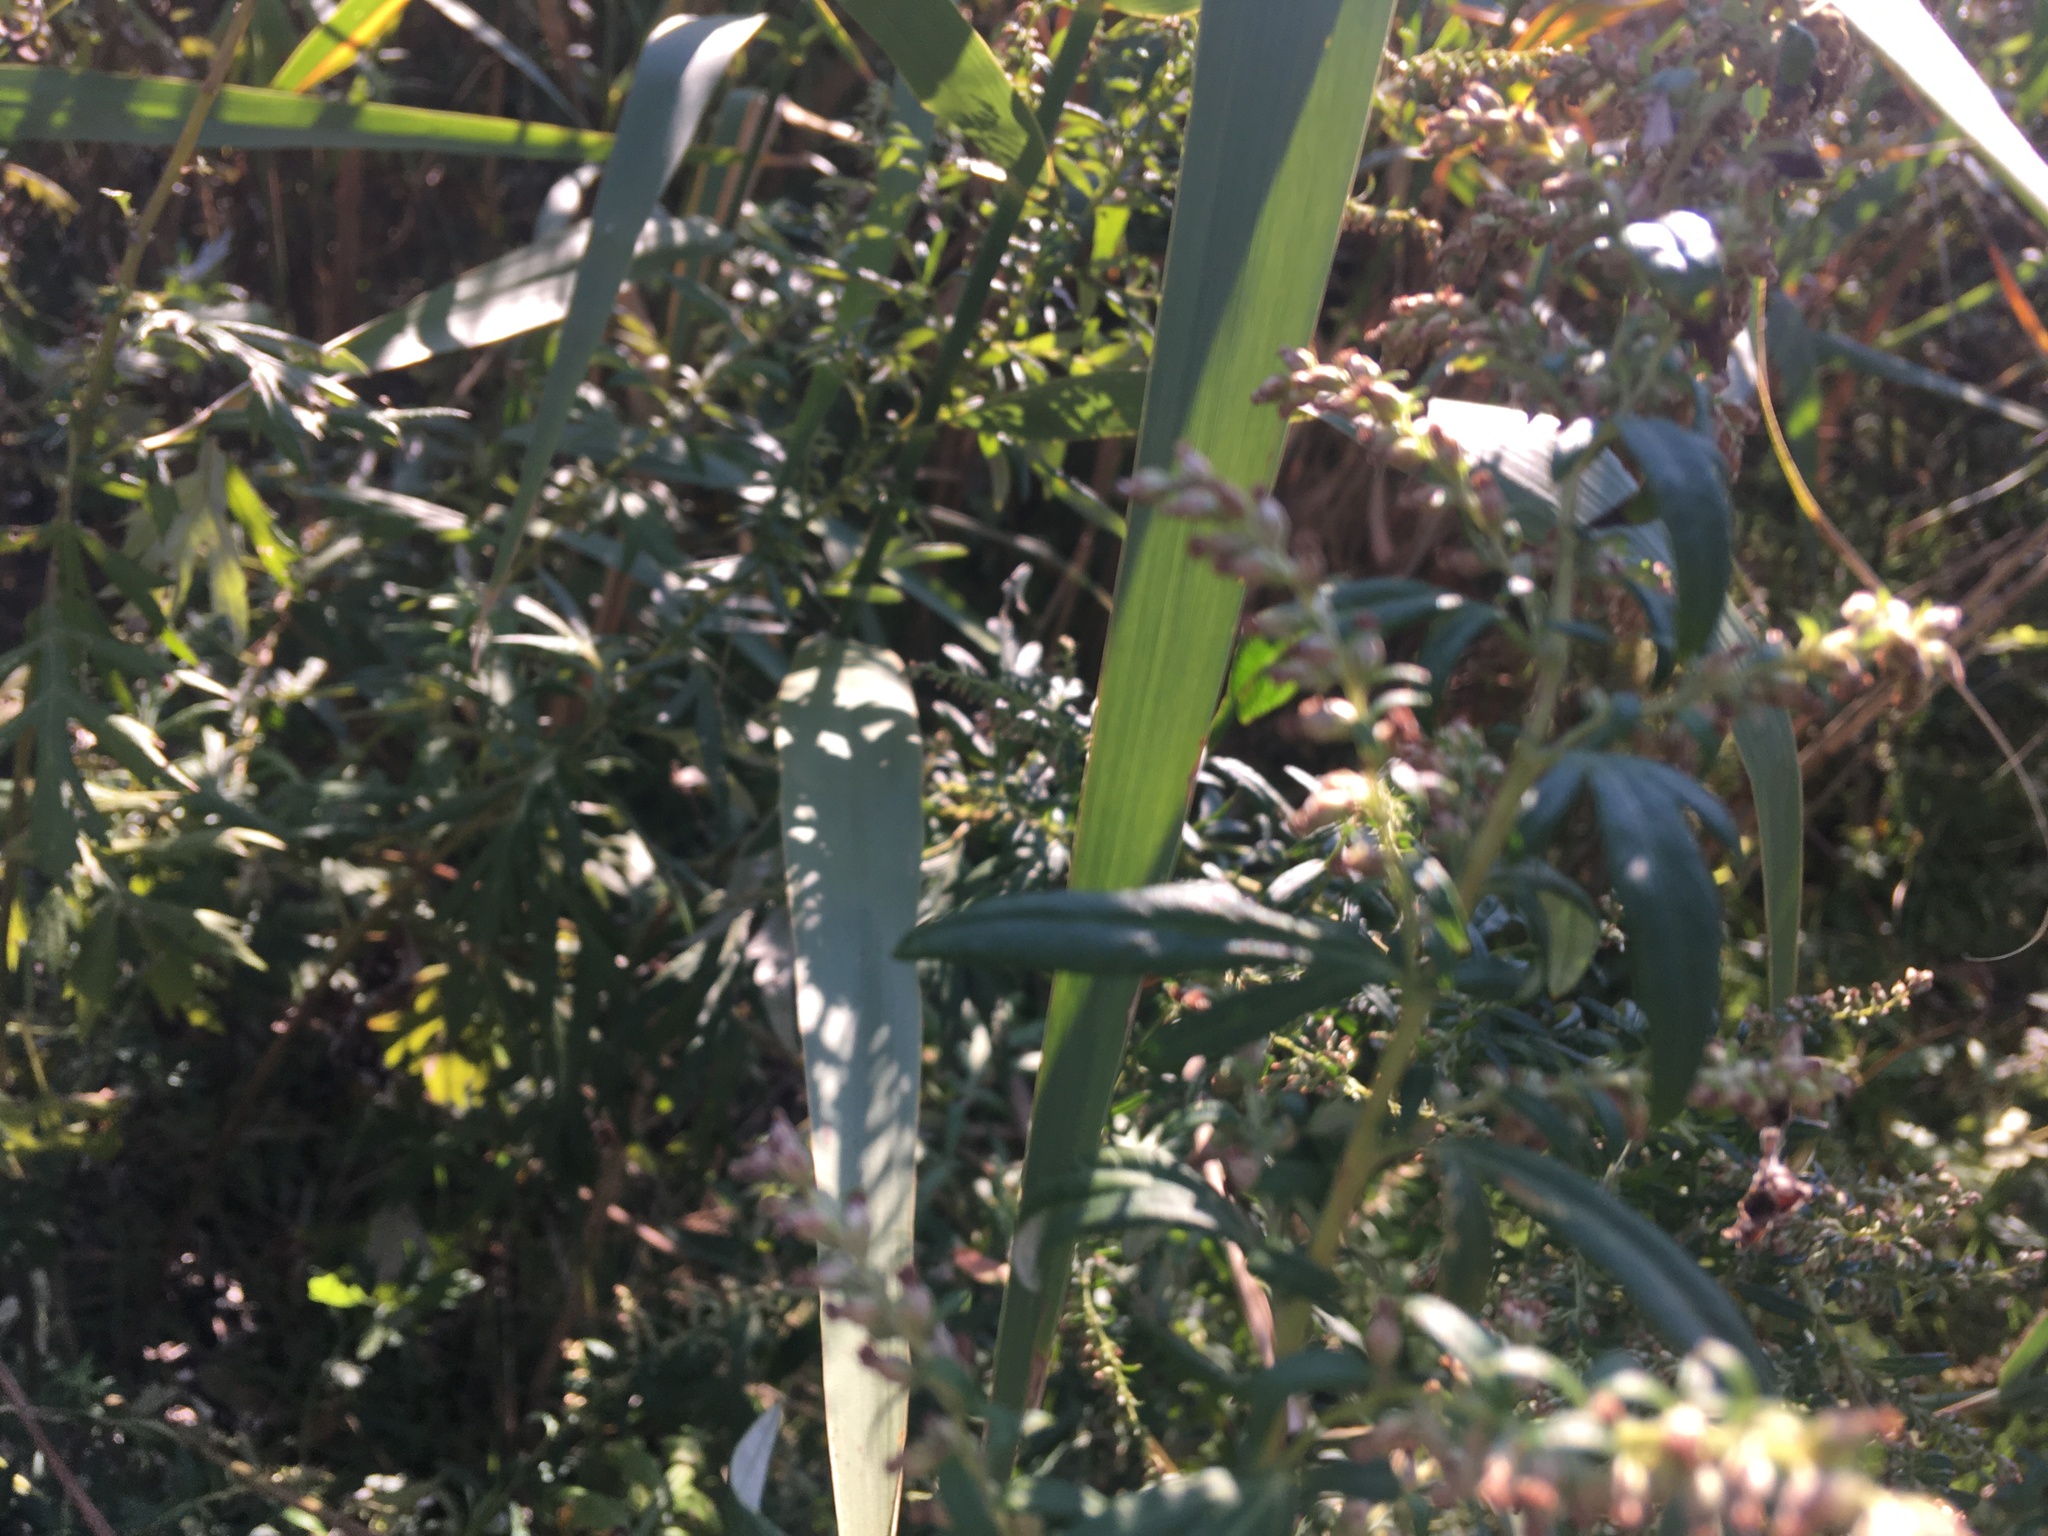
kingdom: Plantae
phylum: Tracheophyta
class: Magnoliopsida
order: Asterales
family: Asteraceae
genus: Artemisia
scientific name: Artemisia vulgaris
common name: Mugwort
